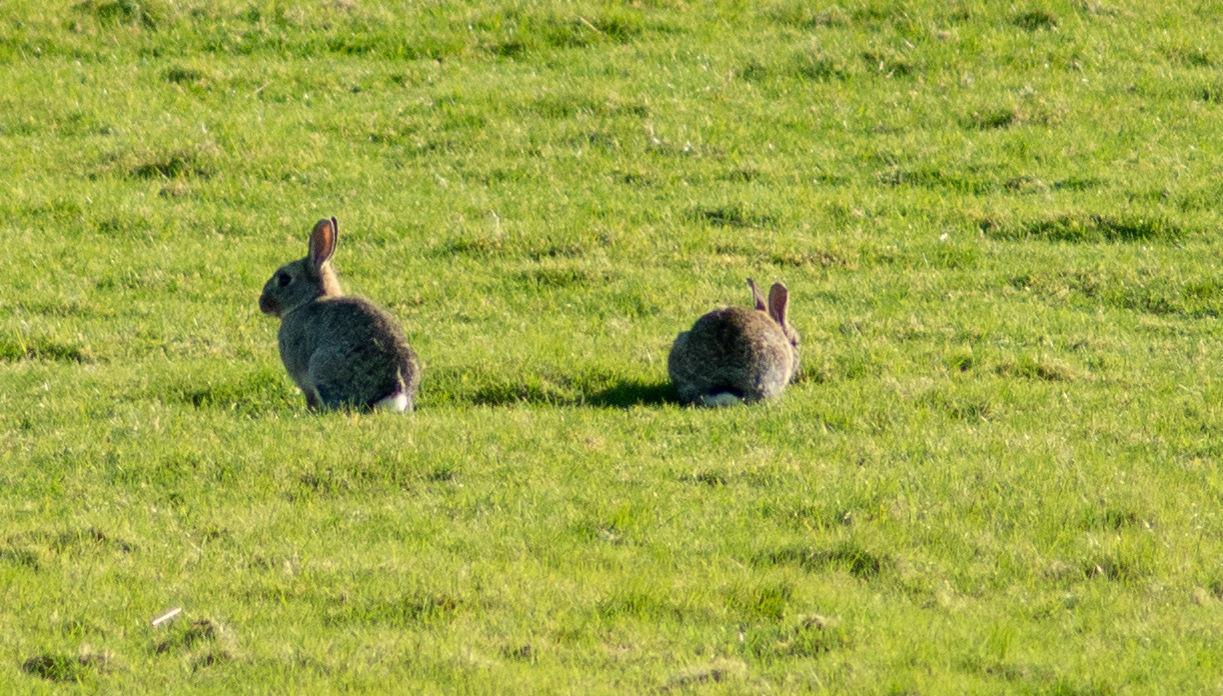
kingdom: Animalia
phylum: Chordata
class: Mammalia
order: Lagomorpha
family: Leporidae
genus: Oryctolagus
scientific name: Oryctolagus cuniculus
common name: European rabbit
